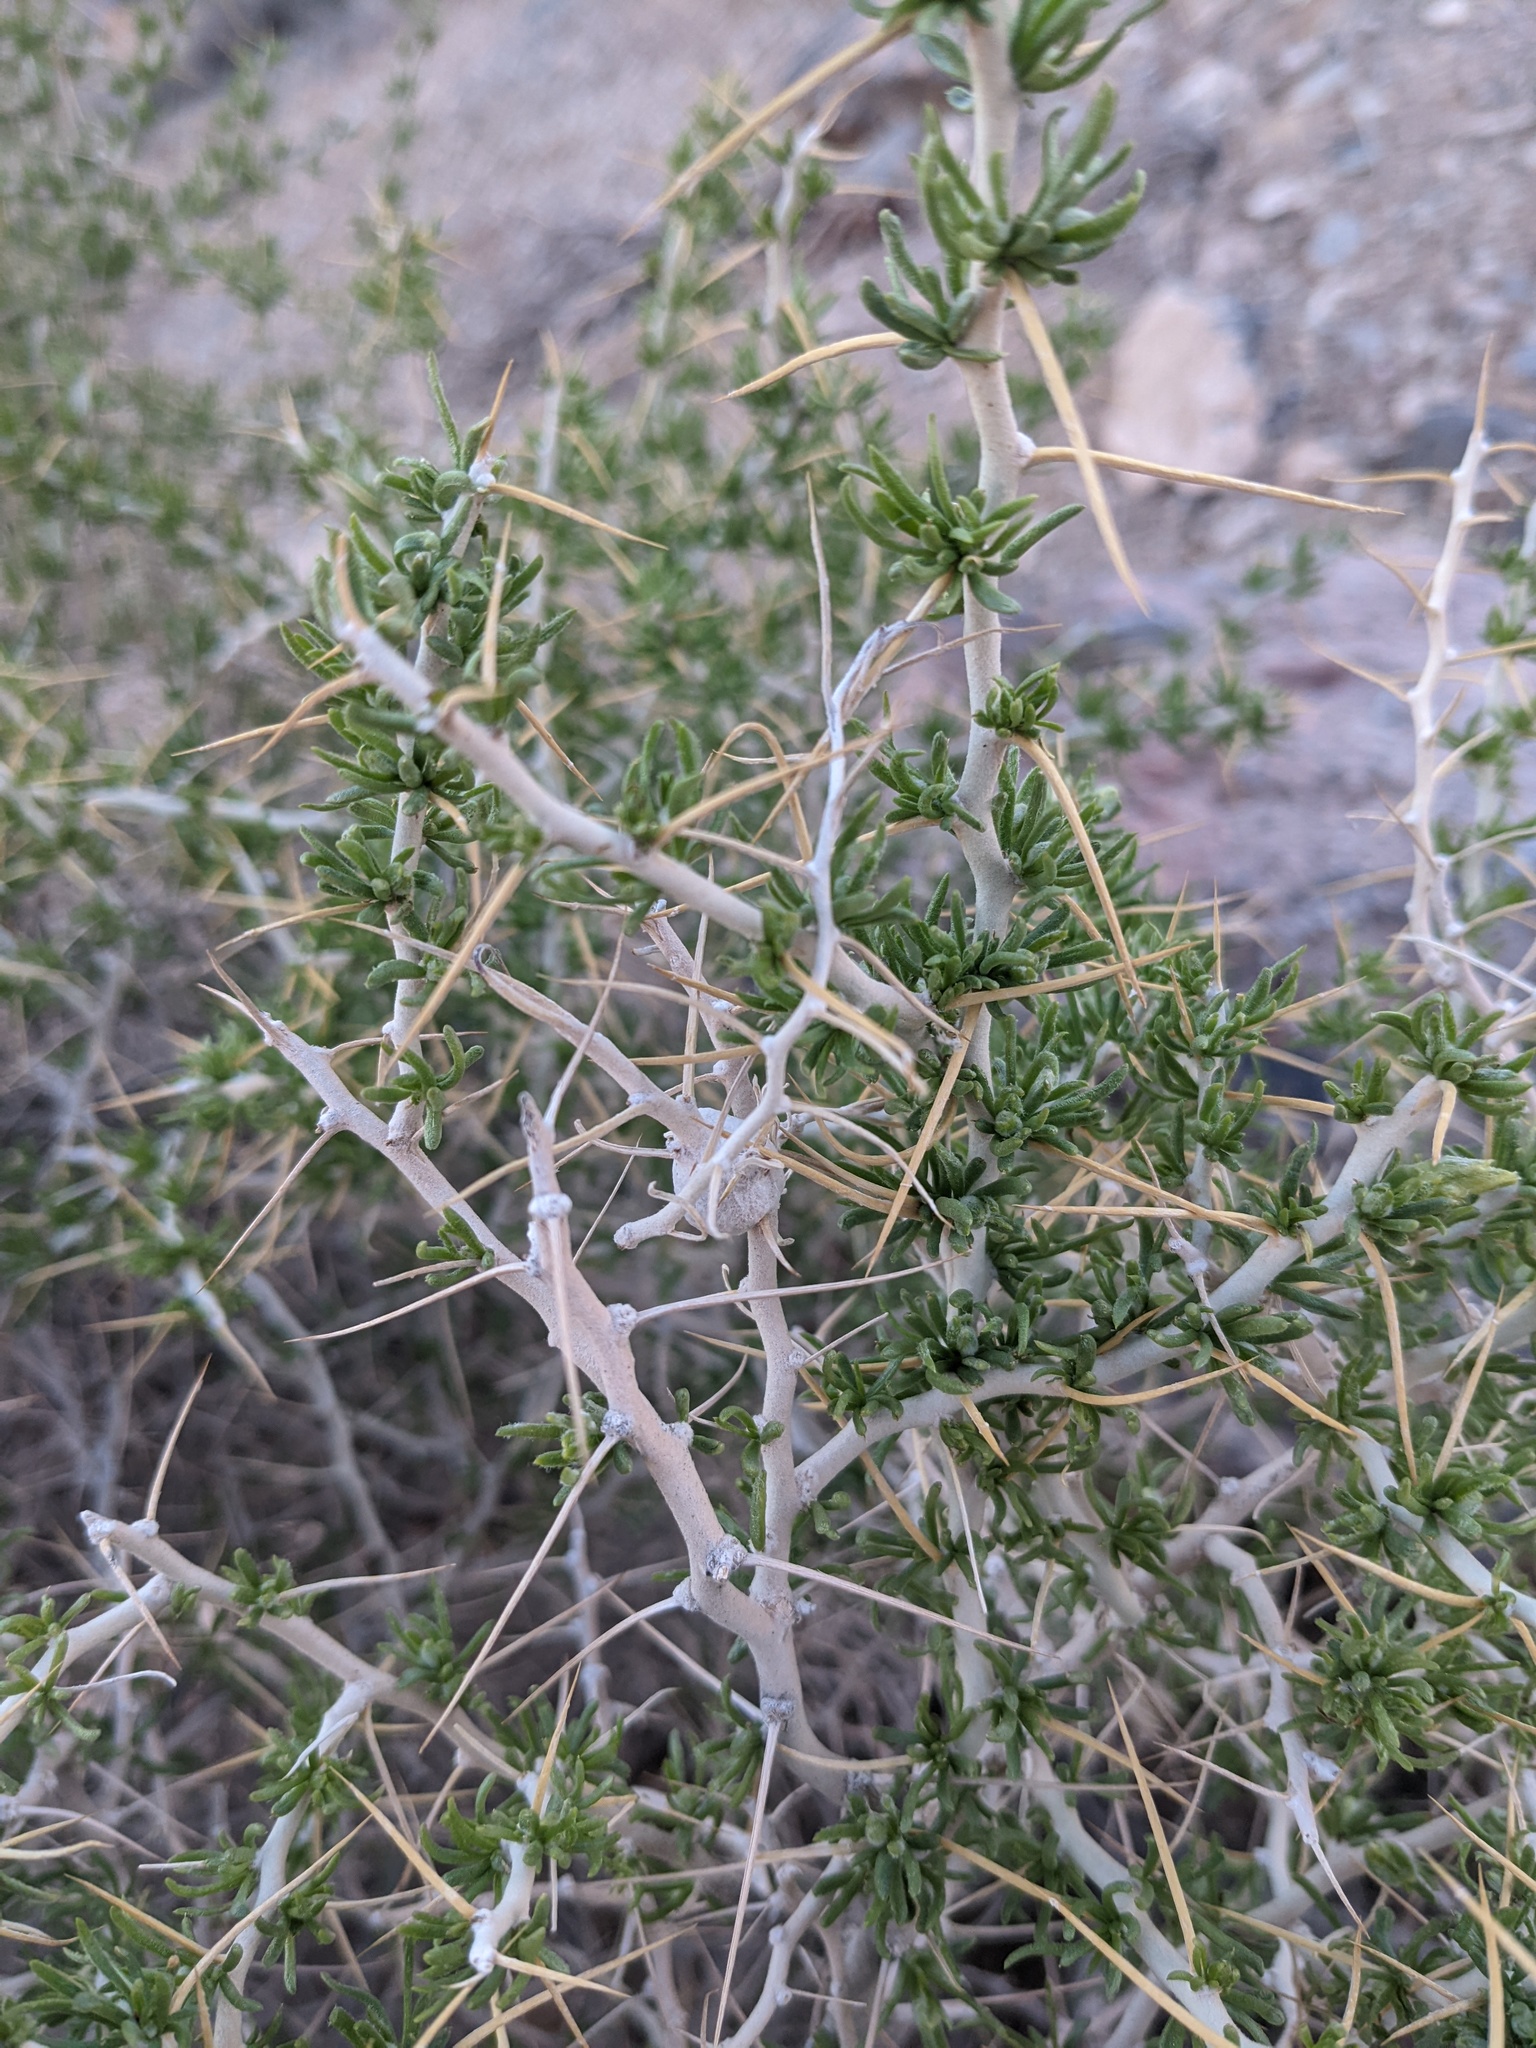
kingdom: Animalia
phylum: Arthropoda
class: Insecta
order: Lepidoptera
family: Gelechiidae
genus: Scrobipalpopsis
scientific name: Scrobipalpopsis tetradymiella
